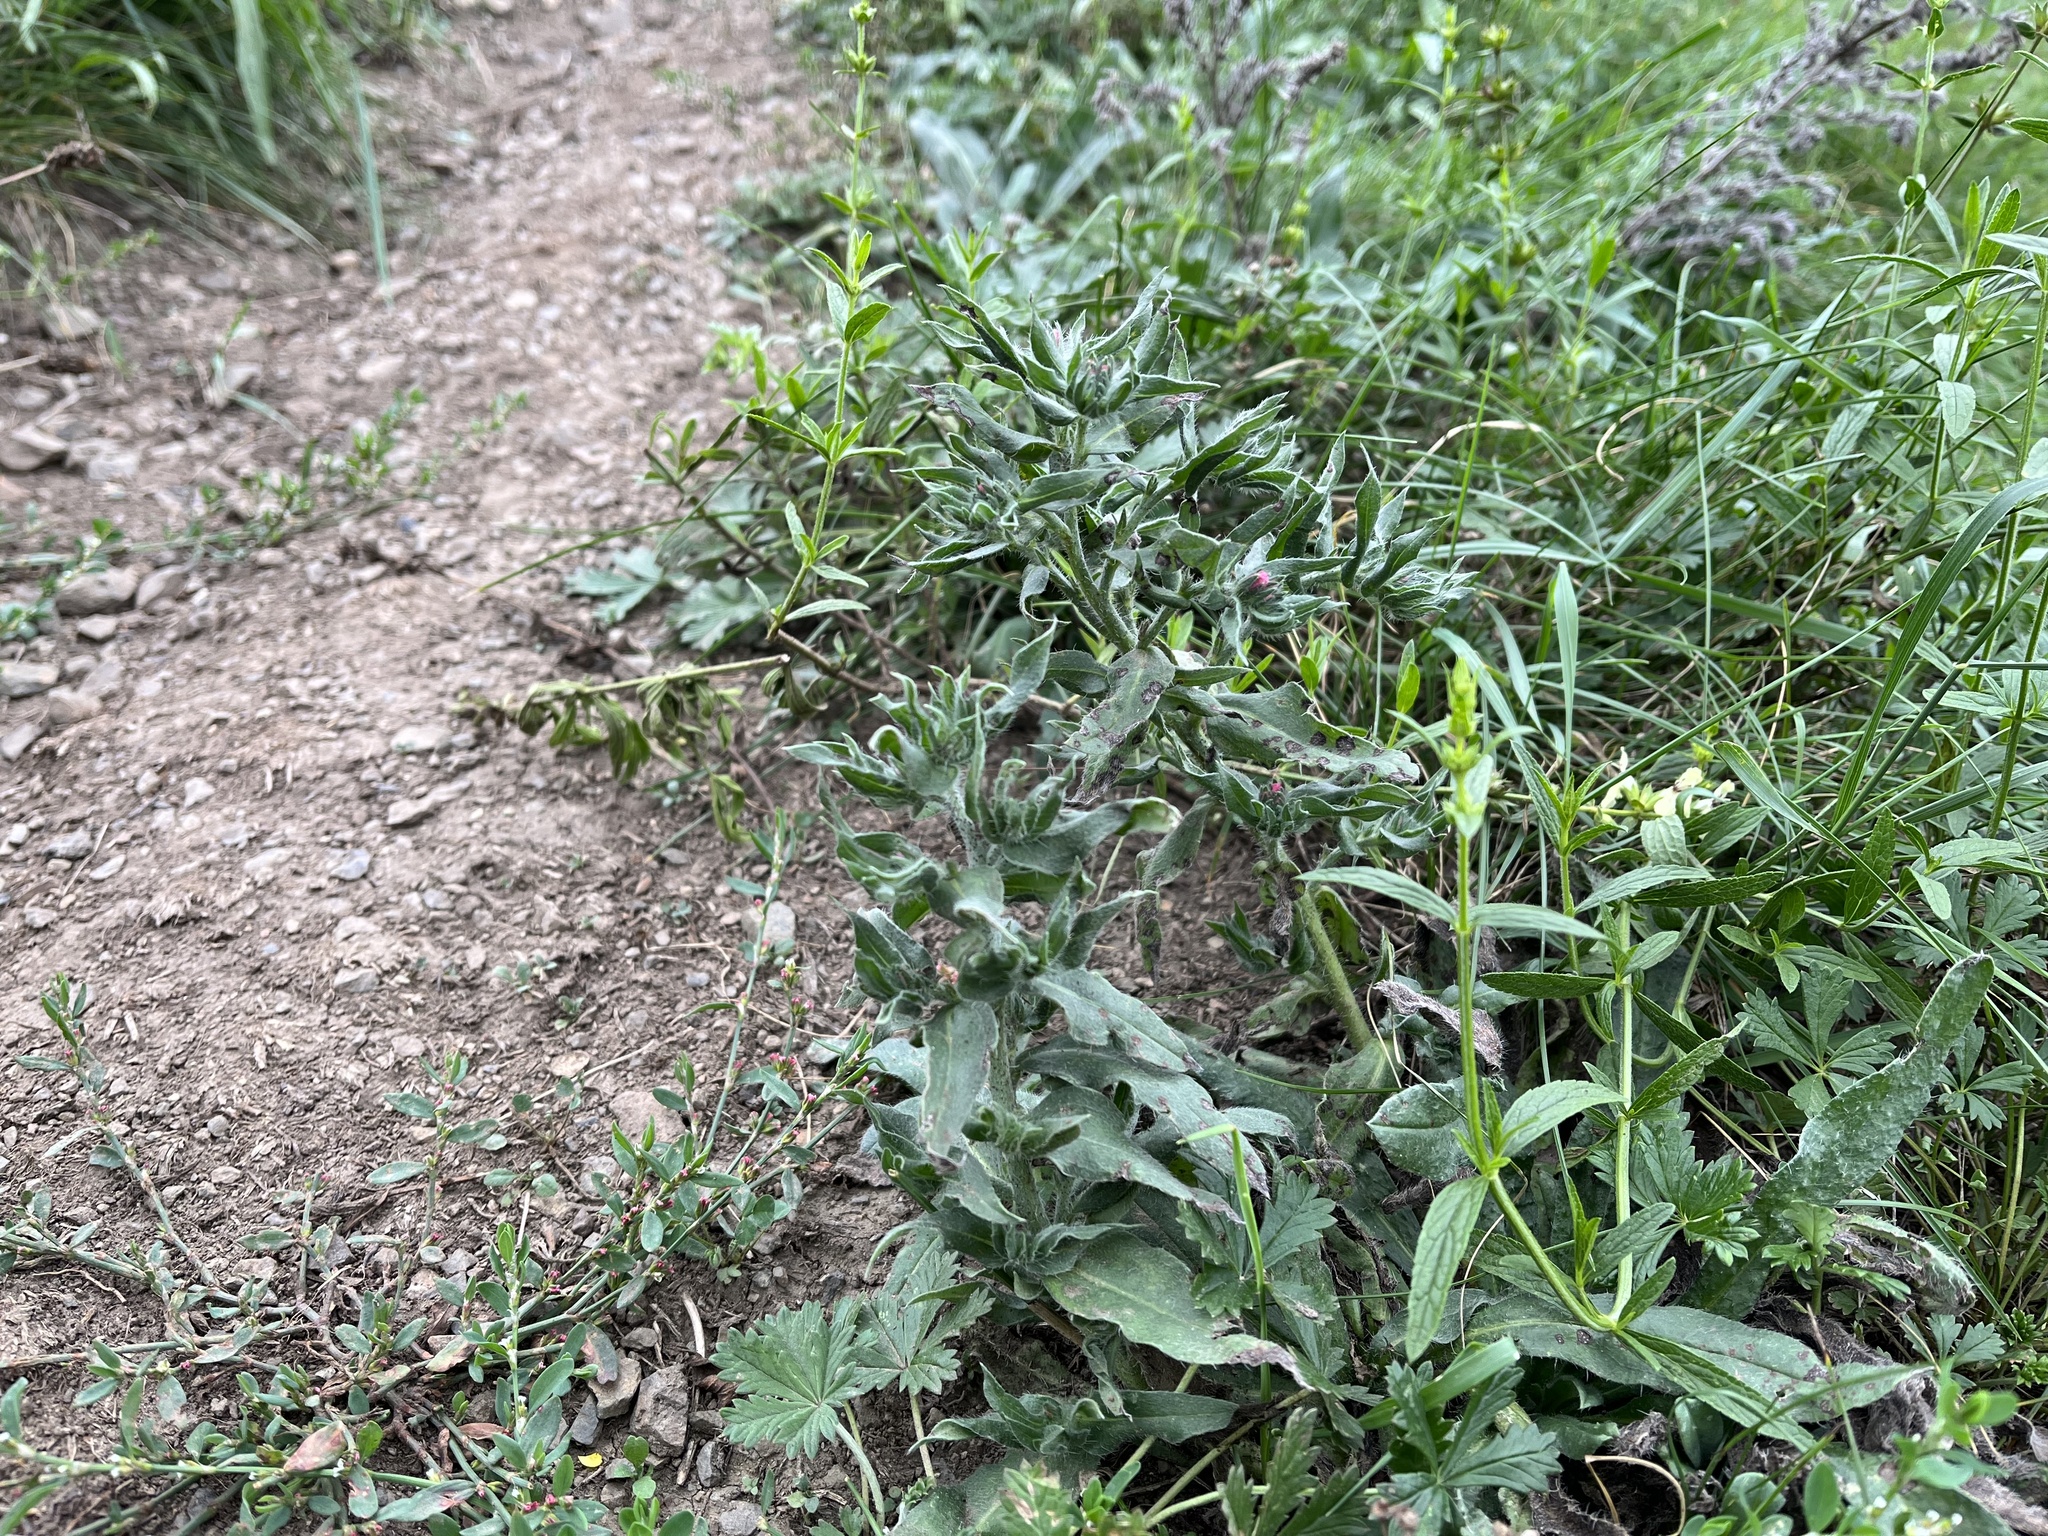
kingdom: Plantae
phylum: Tracheophyta
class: Magnoliopsida
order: Boraginales
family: Boraginaceae
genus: Nonea
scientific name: Nonea pulla
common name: Brown nonea
